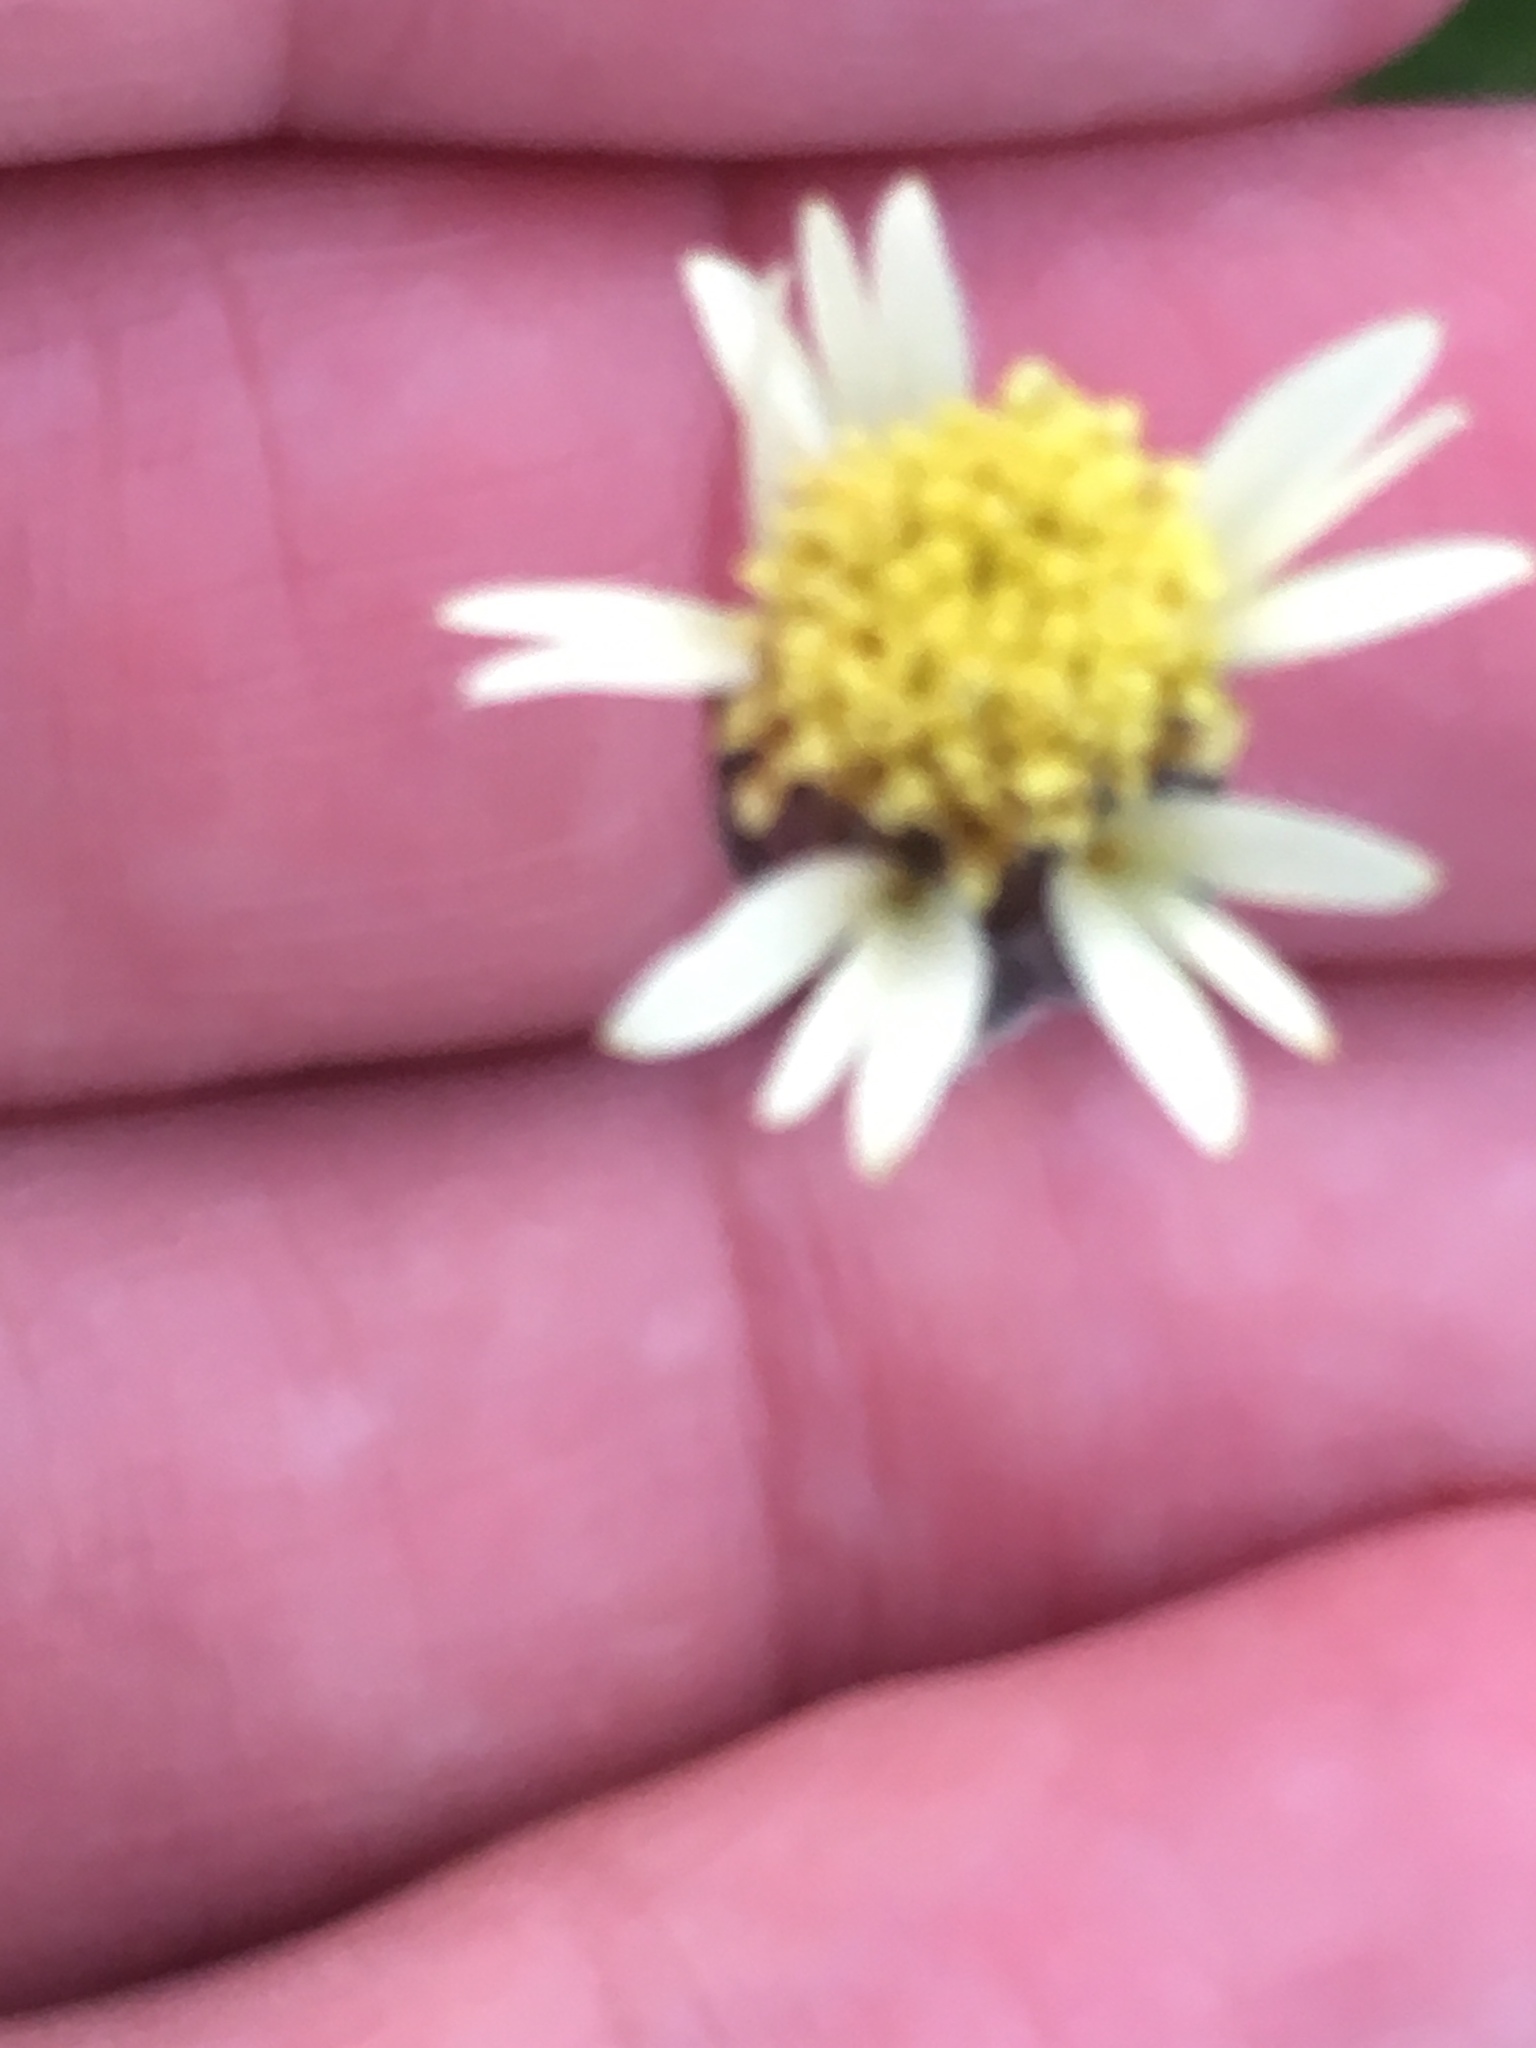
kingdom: Plantae
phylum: Tracheophyta
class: Magnoliopsida
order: Asterales
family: Asteraceae
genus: Tridax
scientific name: Tridax procumbens
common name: Coatbuttons
